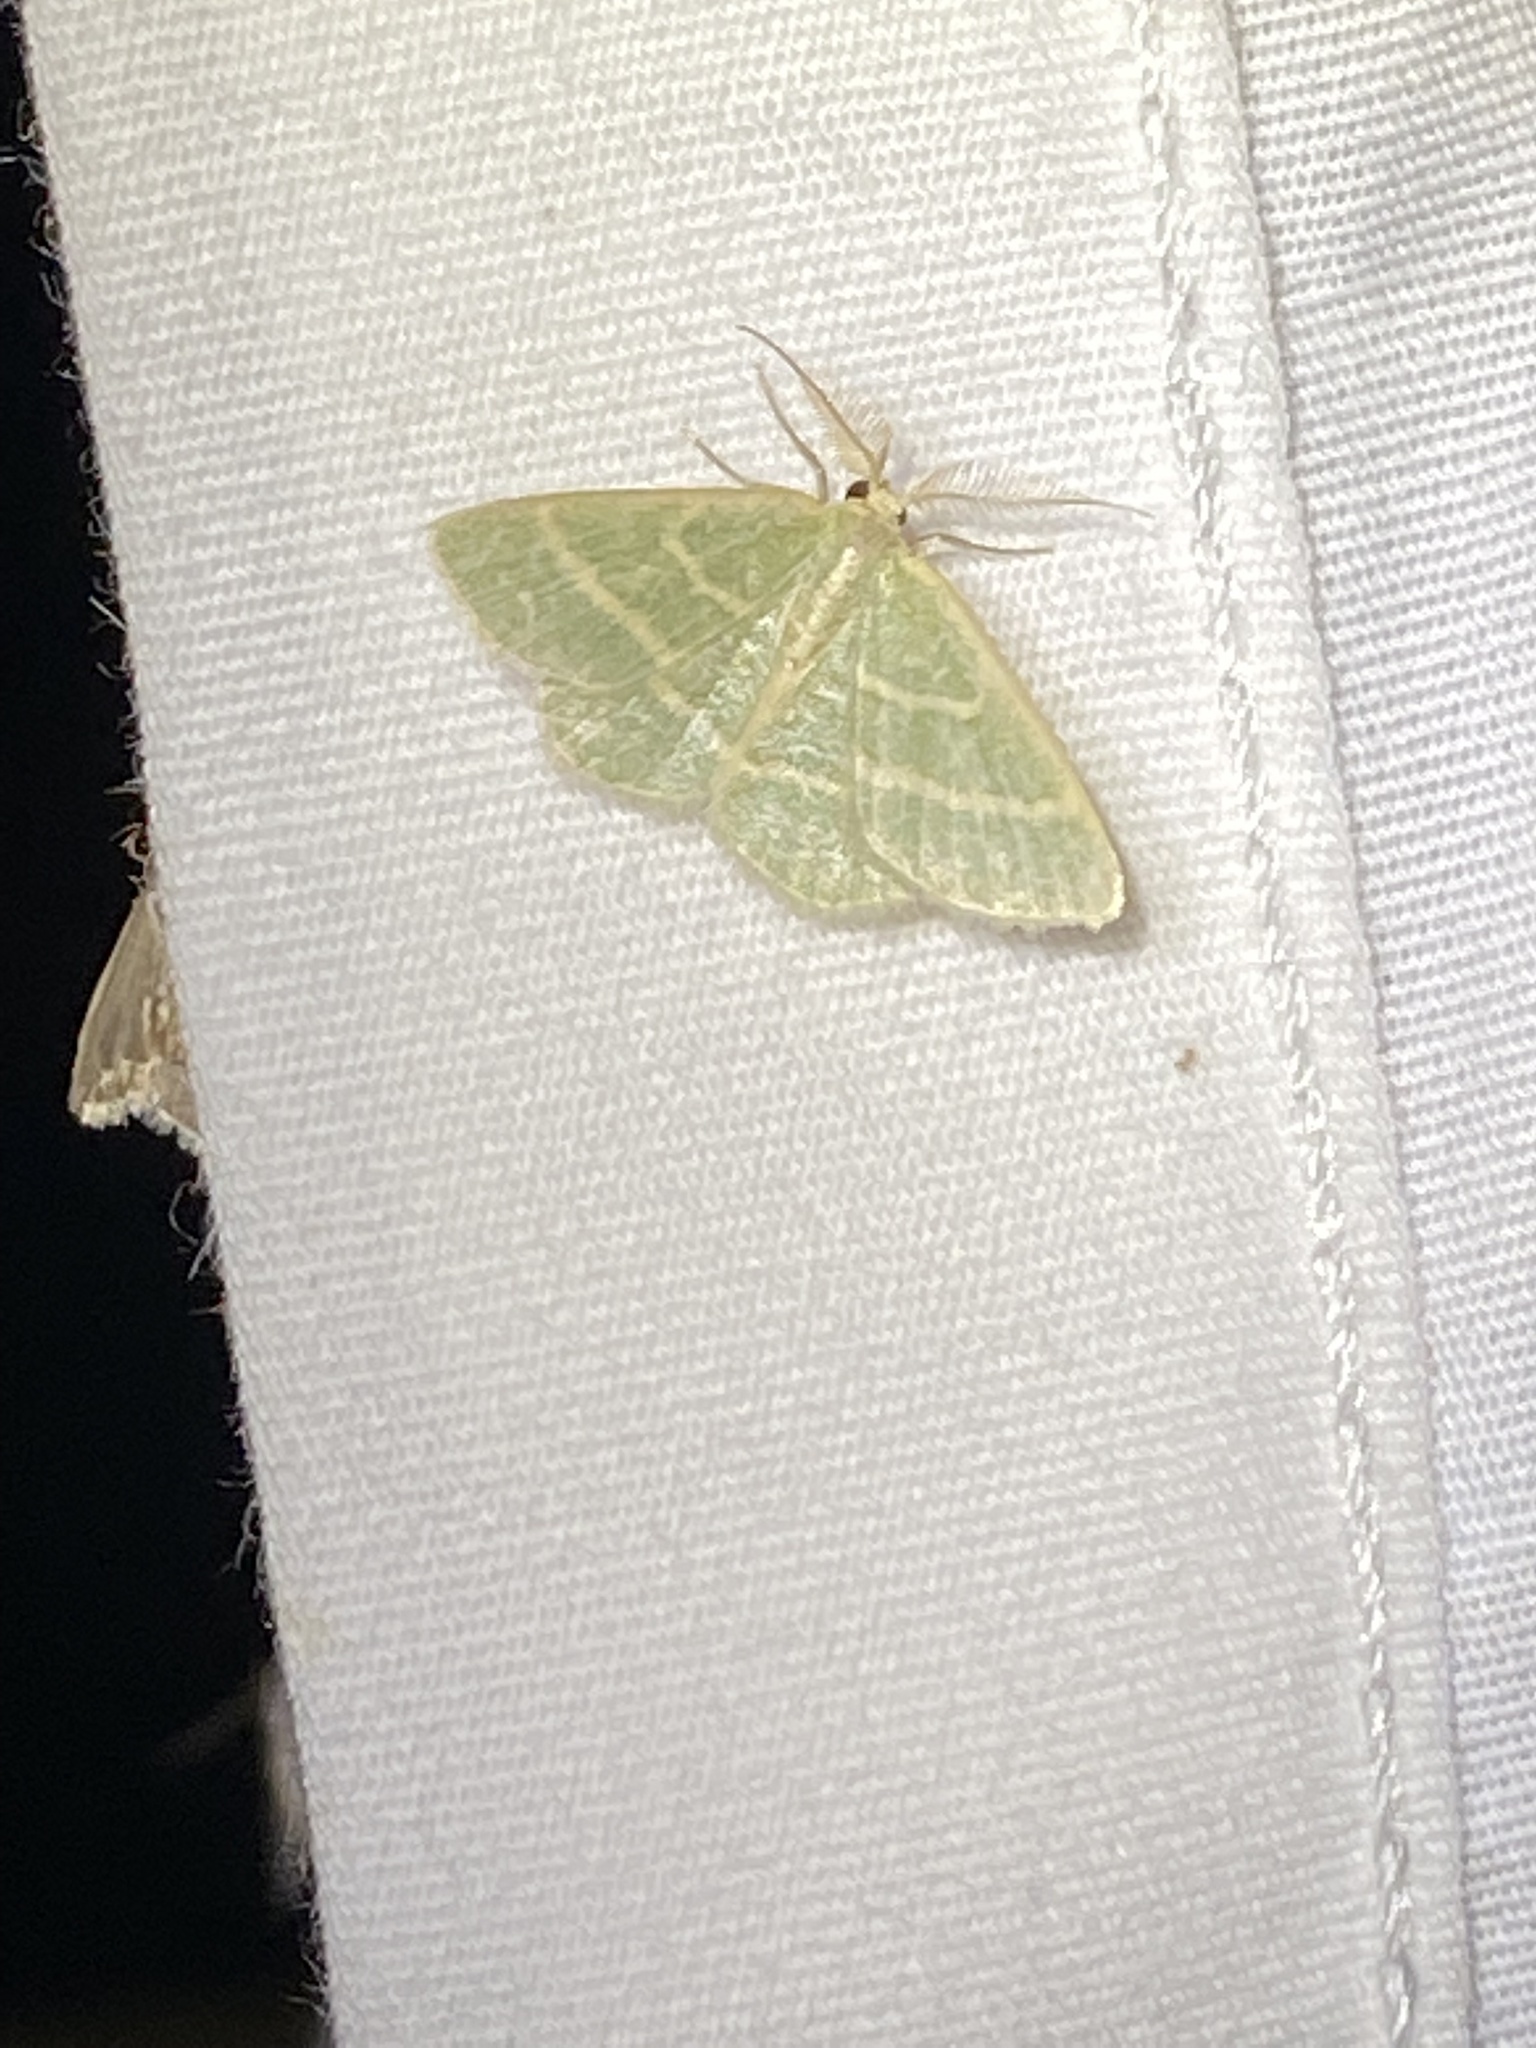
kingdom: Animalia
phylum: Arthropoda
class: Insecta
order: Lepidoptera
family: Geometridae
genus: Chlorochlamys
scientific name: Chlorochlamys chloroleucaria
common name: Blackberry looper
